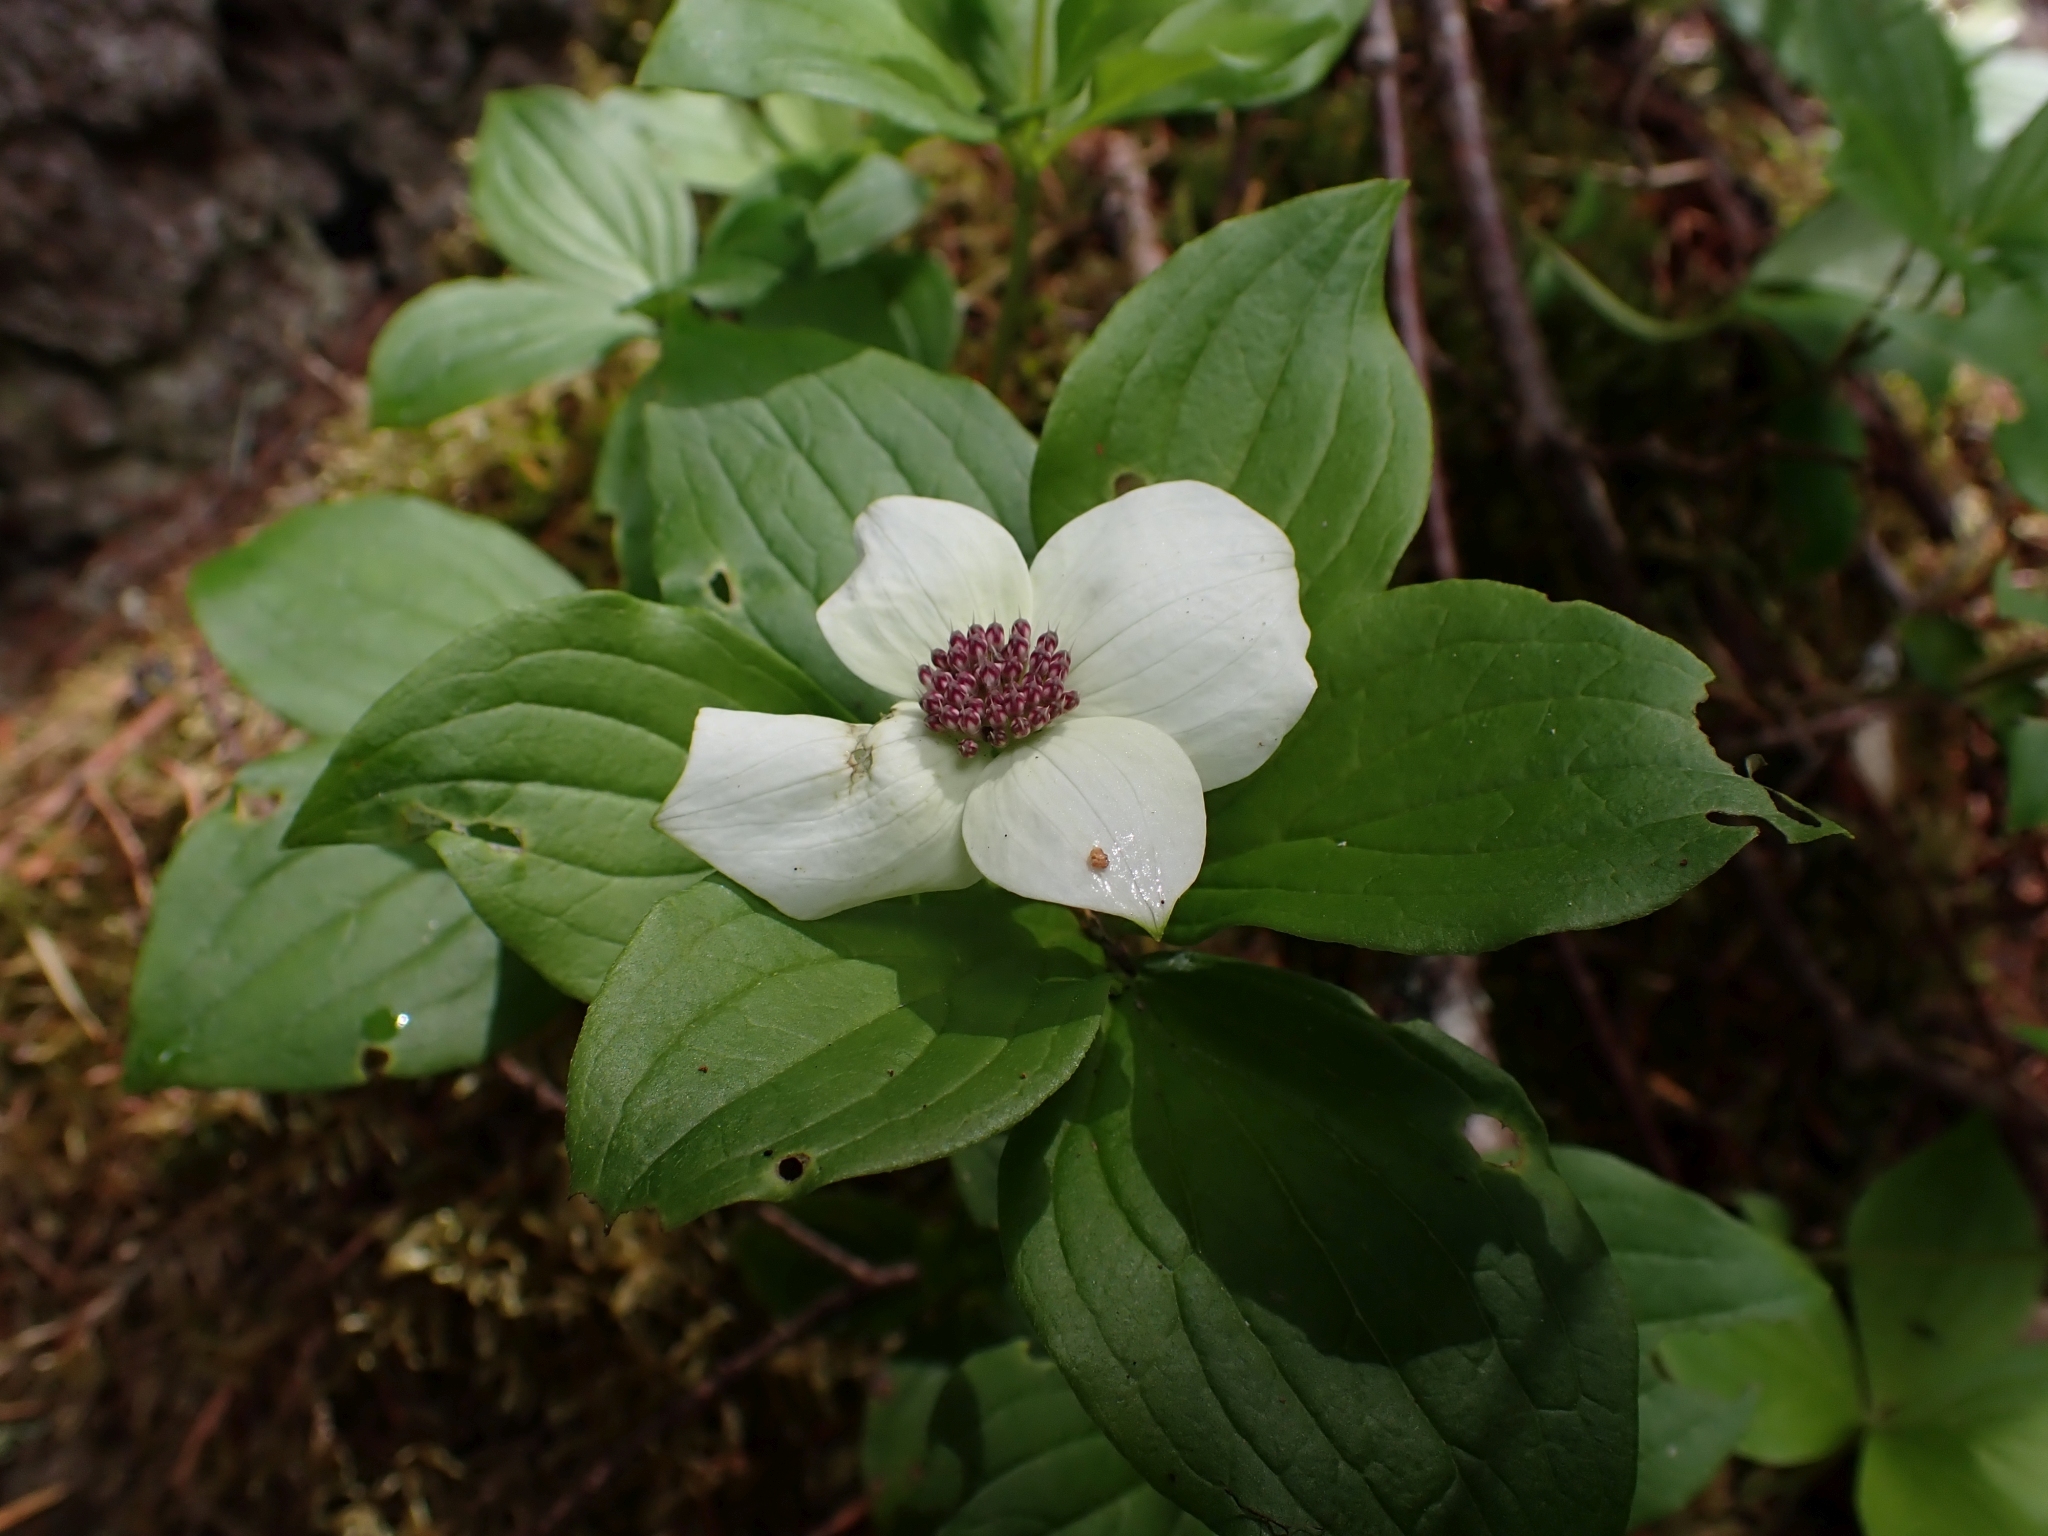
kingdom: Plantae
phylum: Tracheophyta
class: Magnoliopsida
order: Cornales
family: Cornaceae
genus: Cornus
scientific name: Cornus unalaschkensis
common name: Alaska bunchberry
